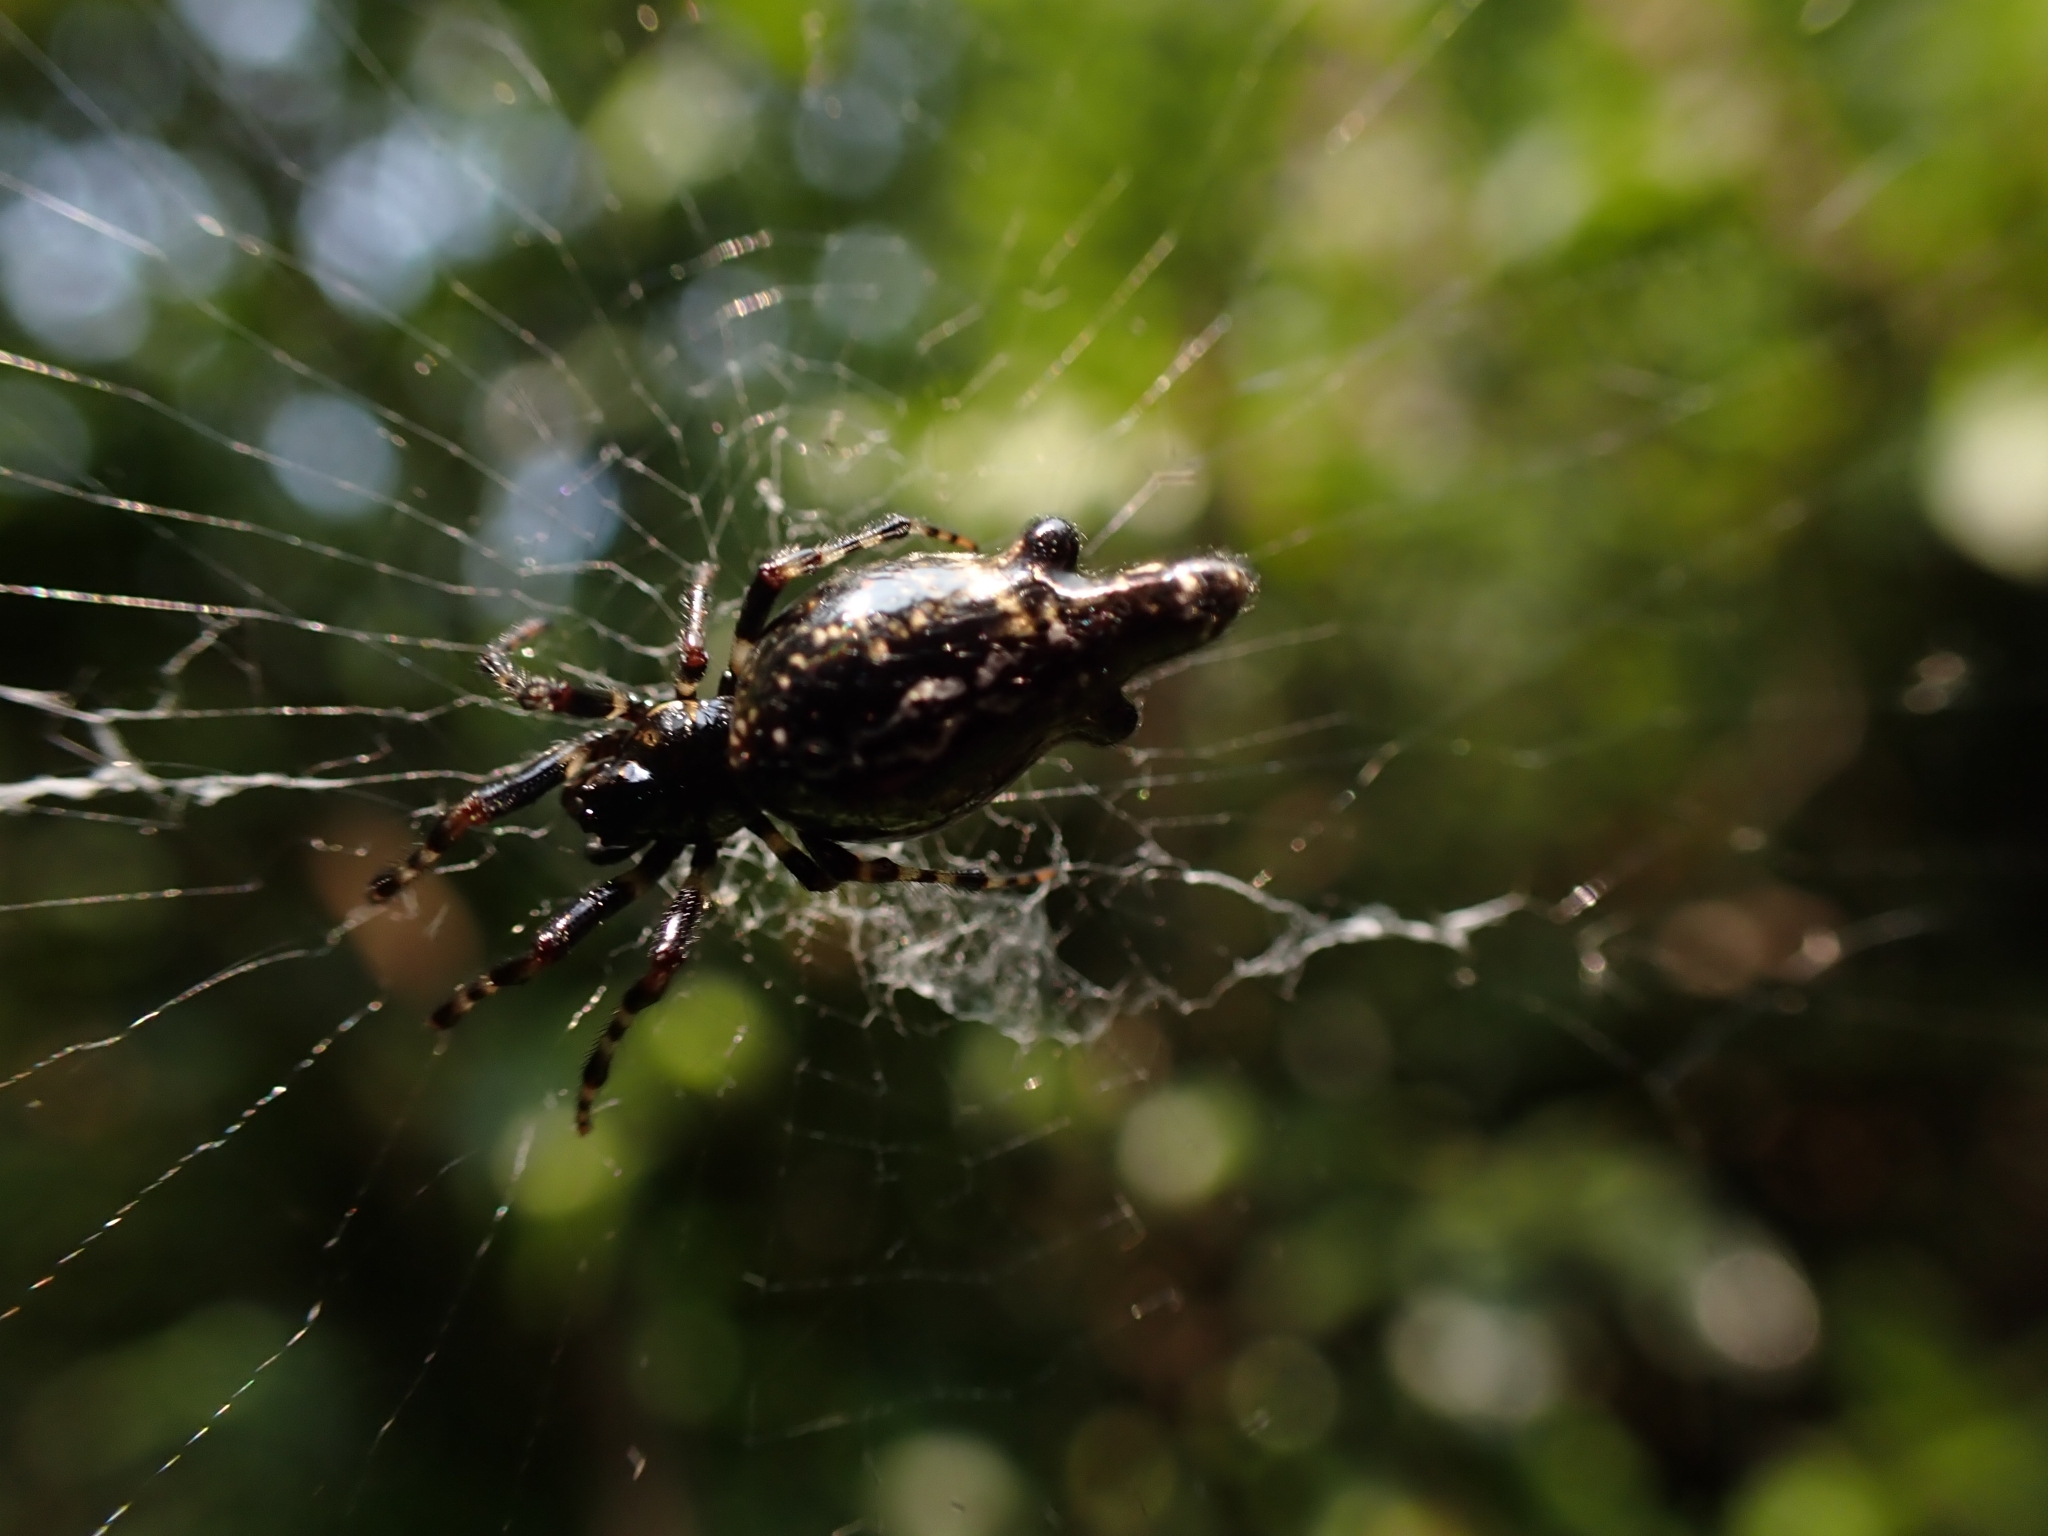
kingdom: Animalia
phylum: Arthropoda
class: Arachnida
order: Araneae
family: Araneidae
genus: Cyclosa
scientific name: Cyclosa trilobata
